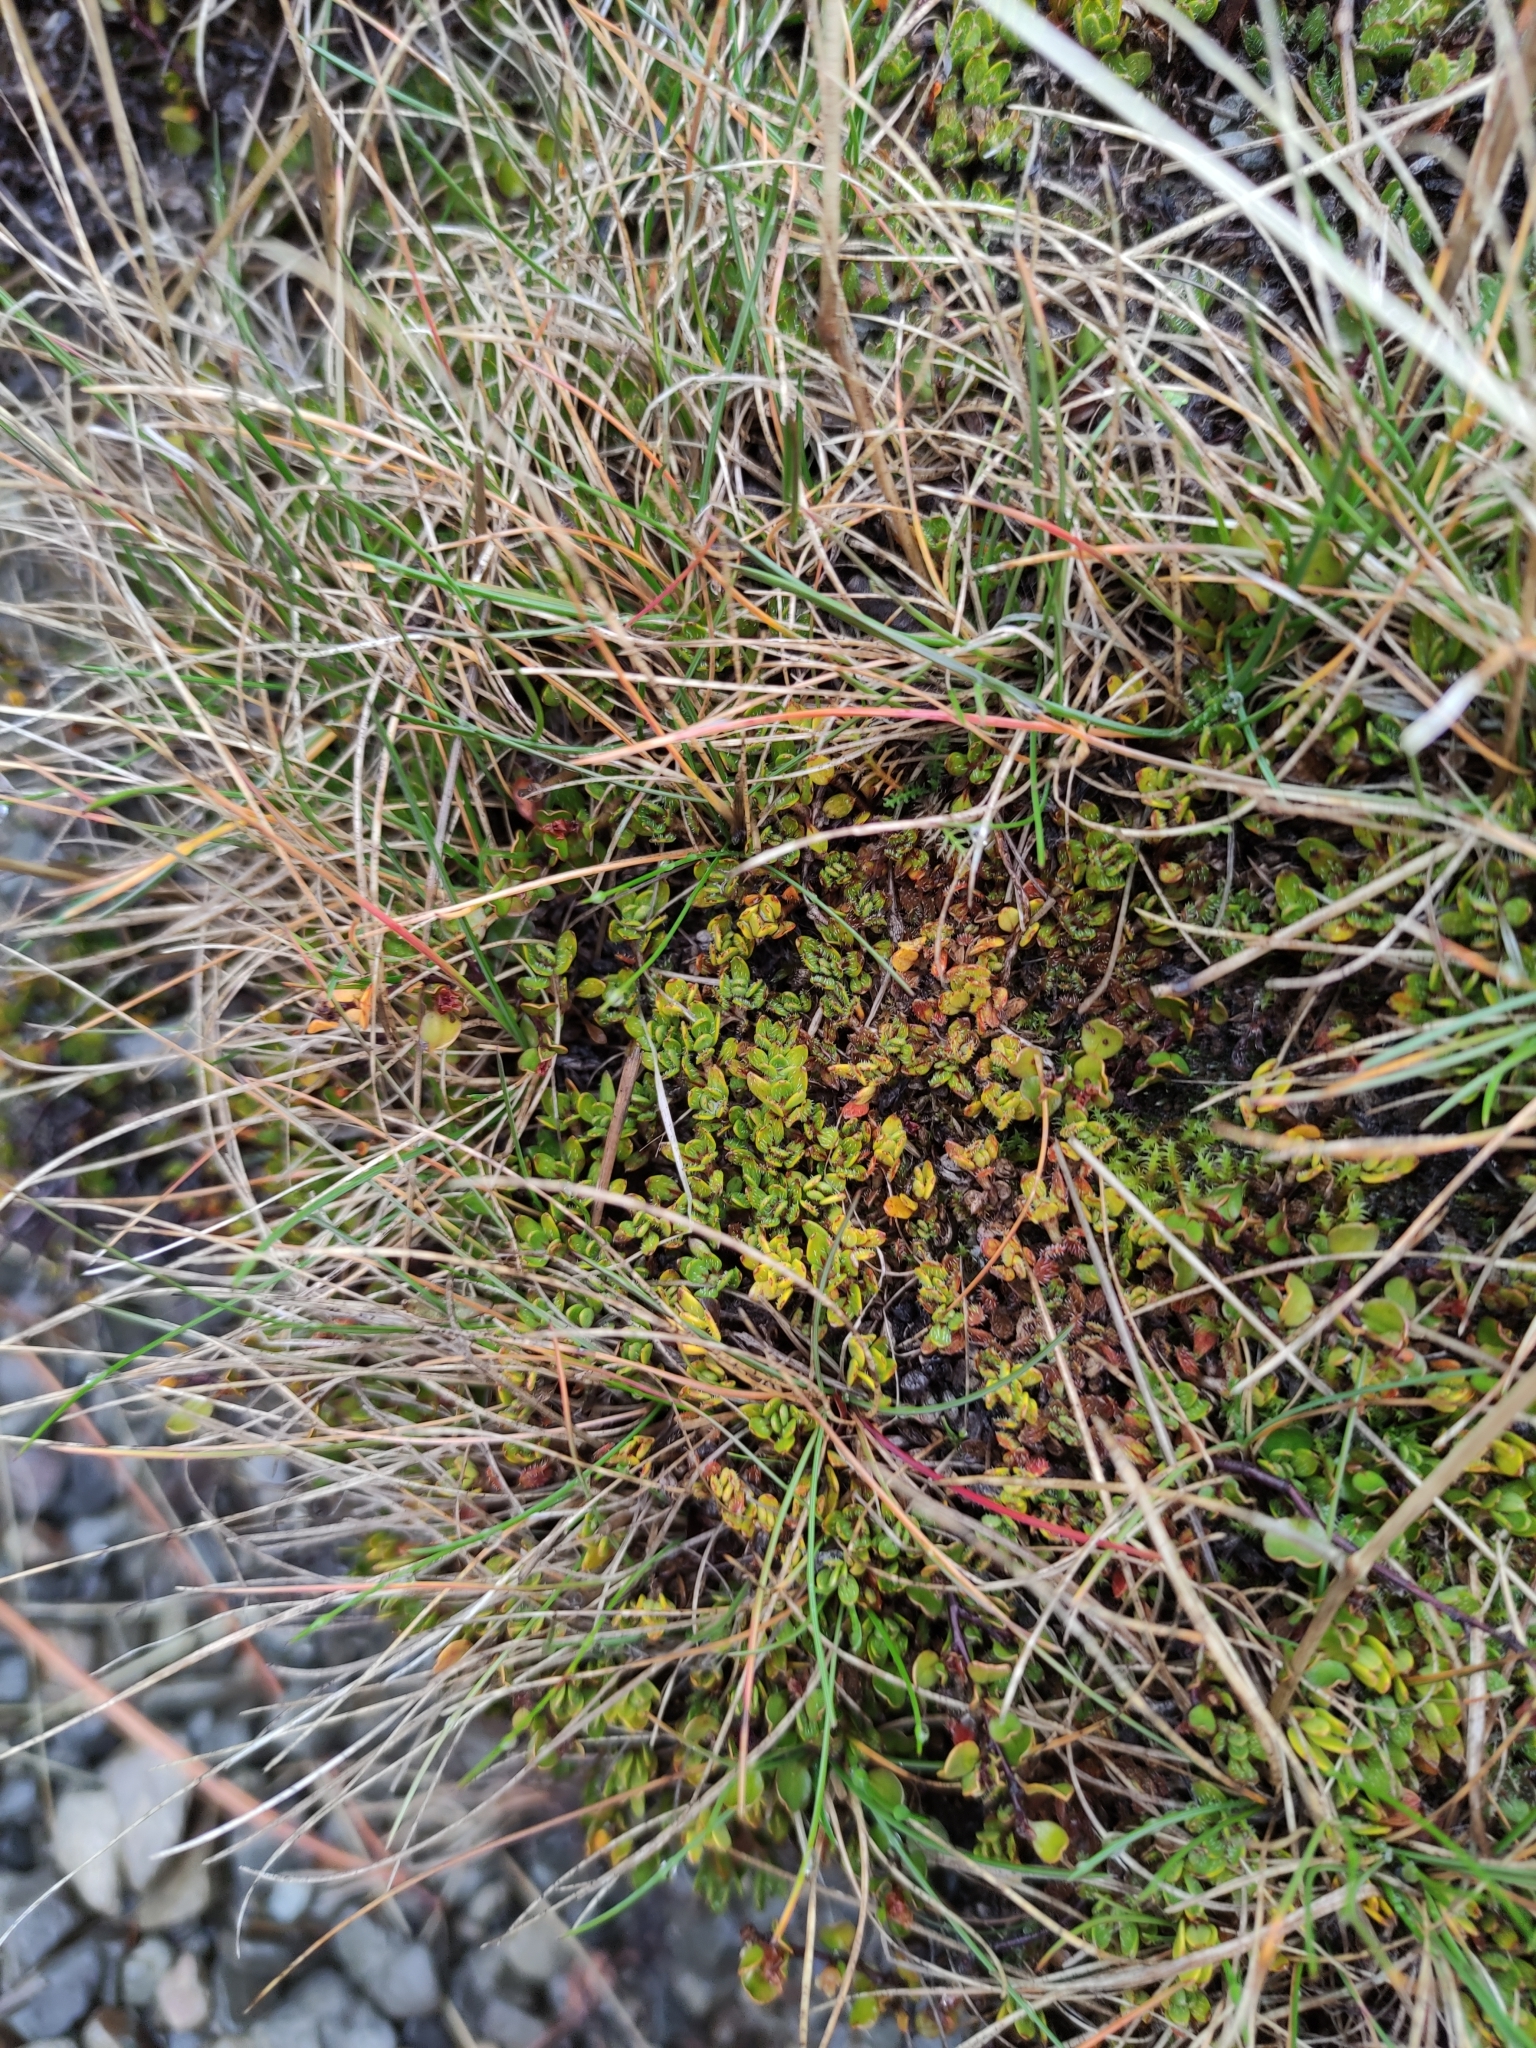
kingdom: Plantae
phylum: Tracheophyta
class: Magnoliopsida
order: Gentianales
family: Rubiaceae
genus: Coprosma
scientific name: Coprosma atropurpurea
